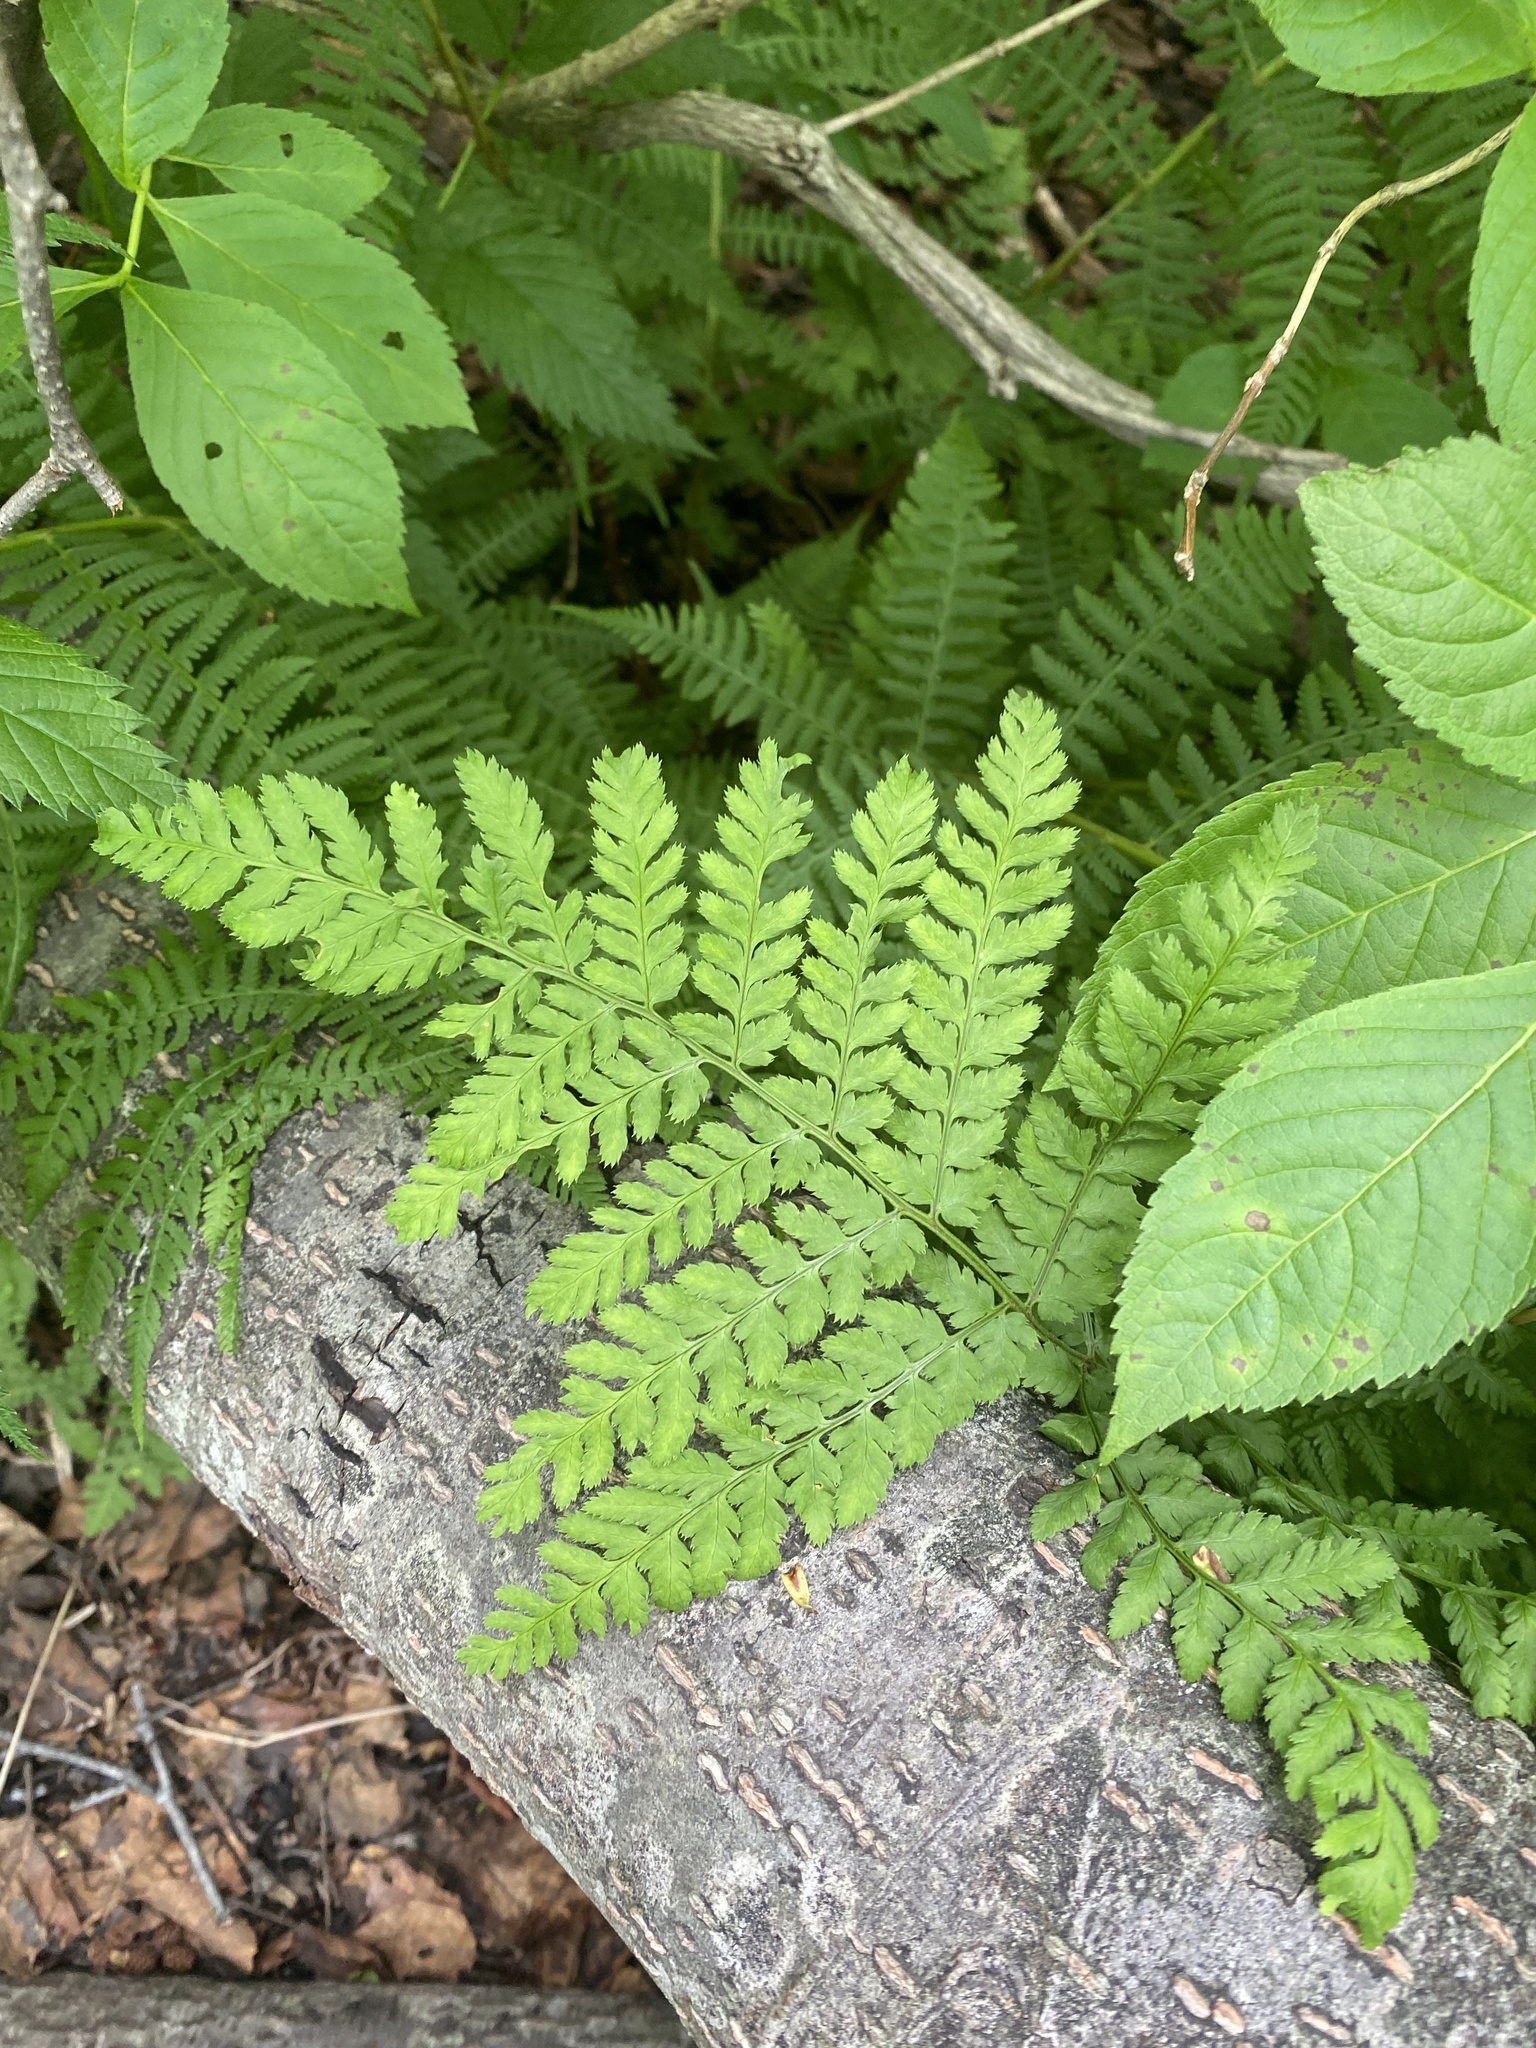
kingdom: Plantae
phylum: Tracheophyta
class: Polypodiopsida
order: Polypodiales
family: Dryopteridaceae
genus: Dryopteris
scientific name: Dryopteris expansa
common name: Northern buckler fern
